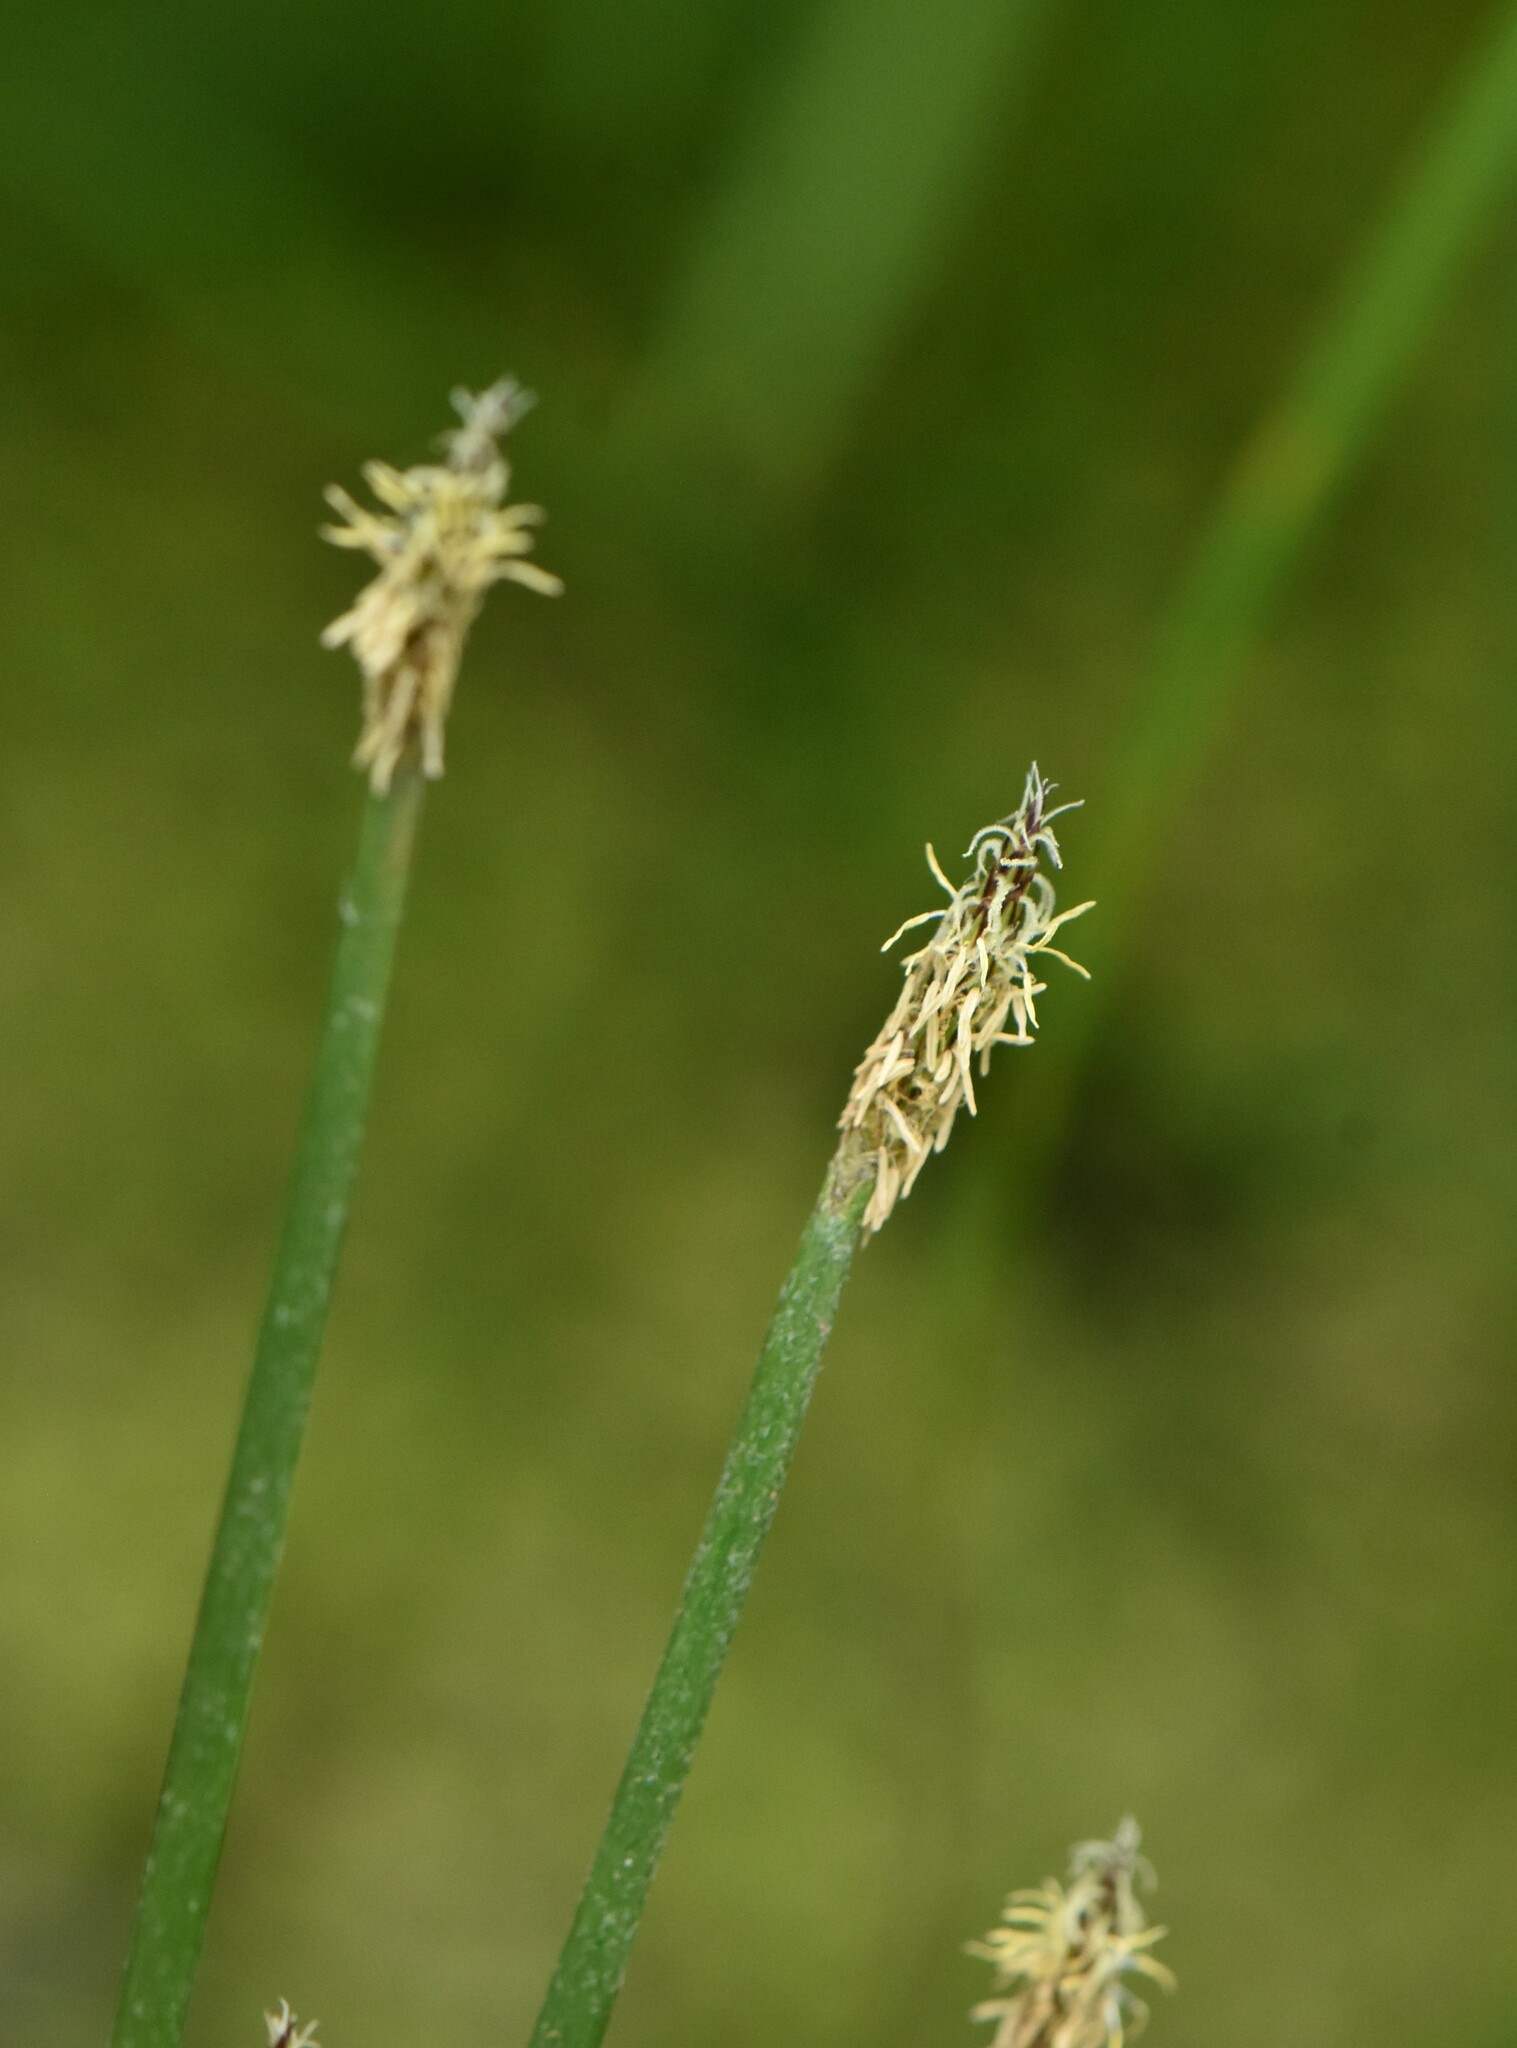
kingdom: Plantae
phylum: Tracheophyta
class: Liliopsida
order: Poales
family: Cyperaceae
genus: Eleocharis
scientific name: Eleocharis palustris
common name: Common spike-rush
